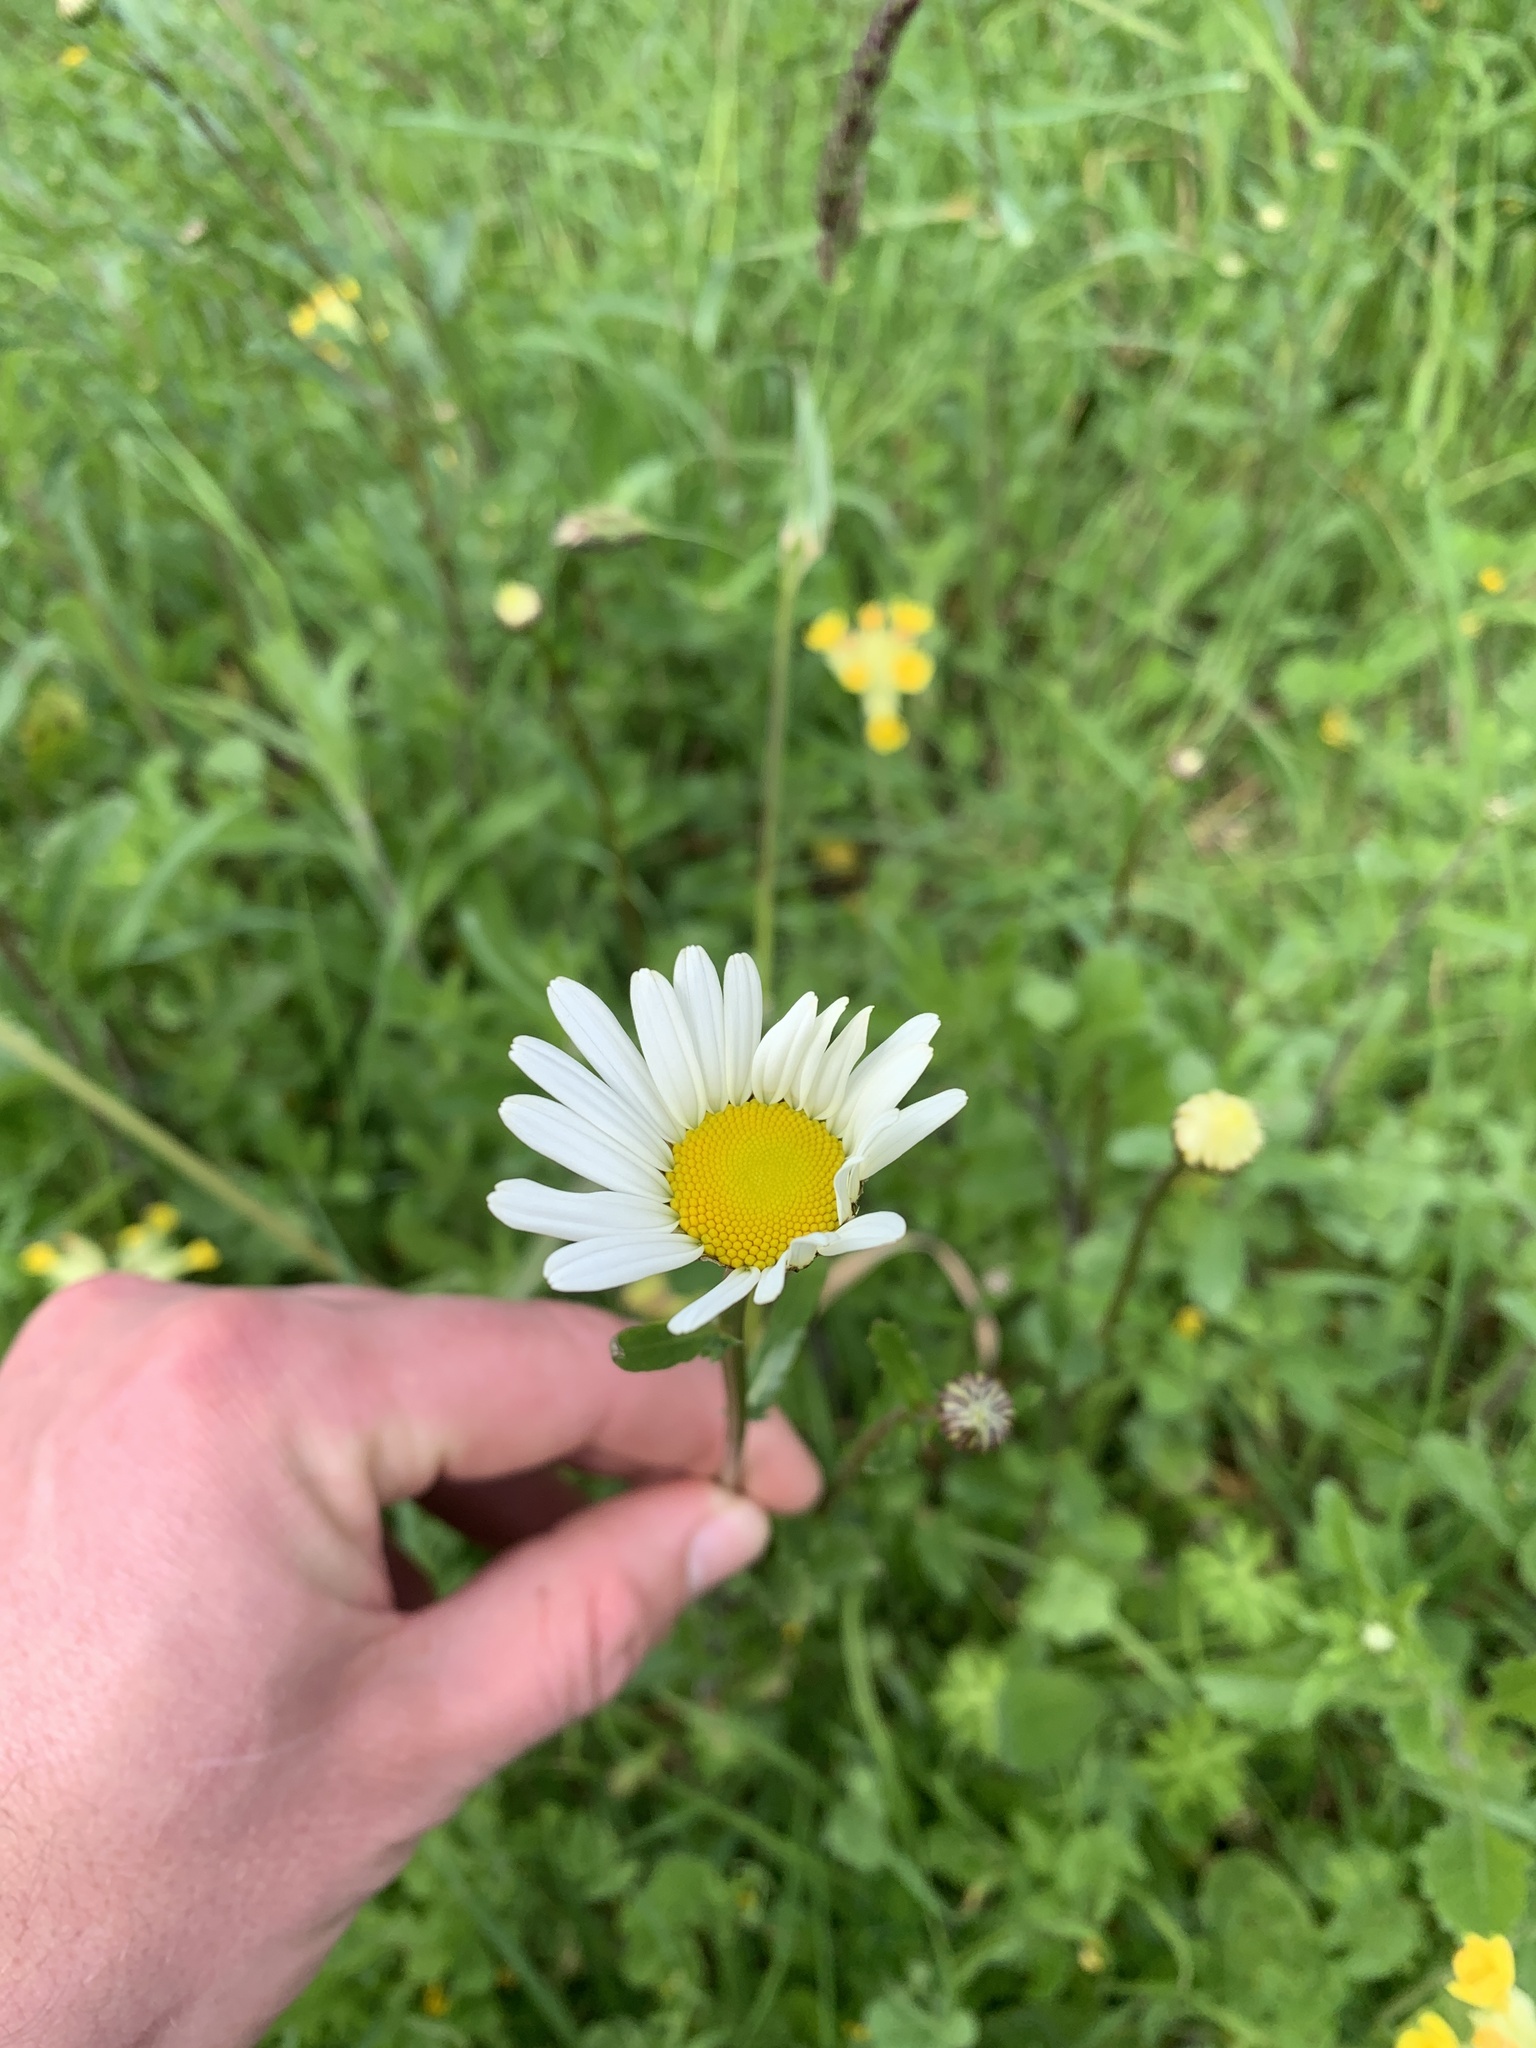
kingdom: Plantae
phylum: Tracheophyta
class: Magnoliopsida
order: Asterales
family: Asteraceae
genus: Leucanthemum
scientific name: Leucanthemum vulgare
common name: Oxeye daisy
